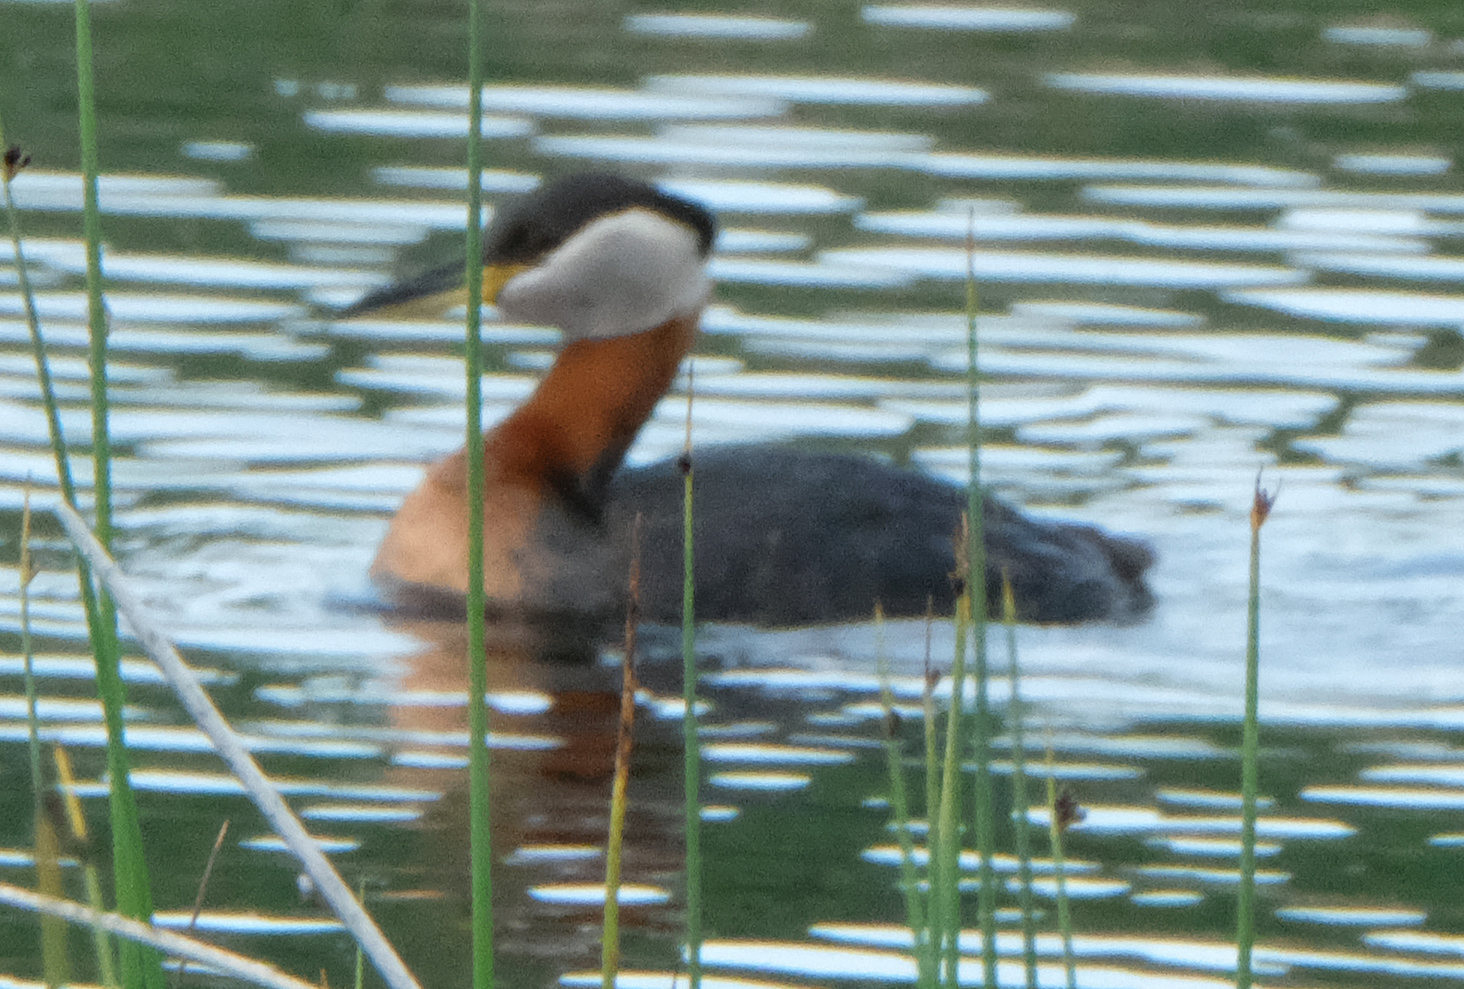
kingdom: Animalia
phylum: Chordata
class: Aves
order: Podicipediformes
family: Podicipedidae
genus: Podiceps
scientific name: Podiceps grisegena
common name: Red-necked grebe
